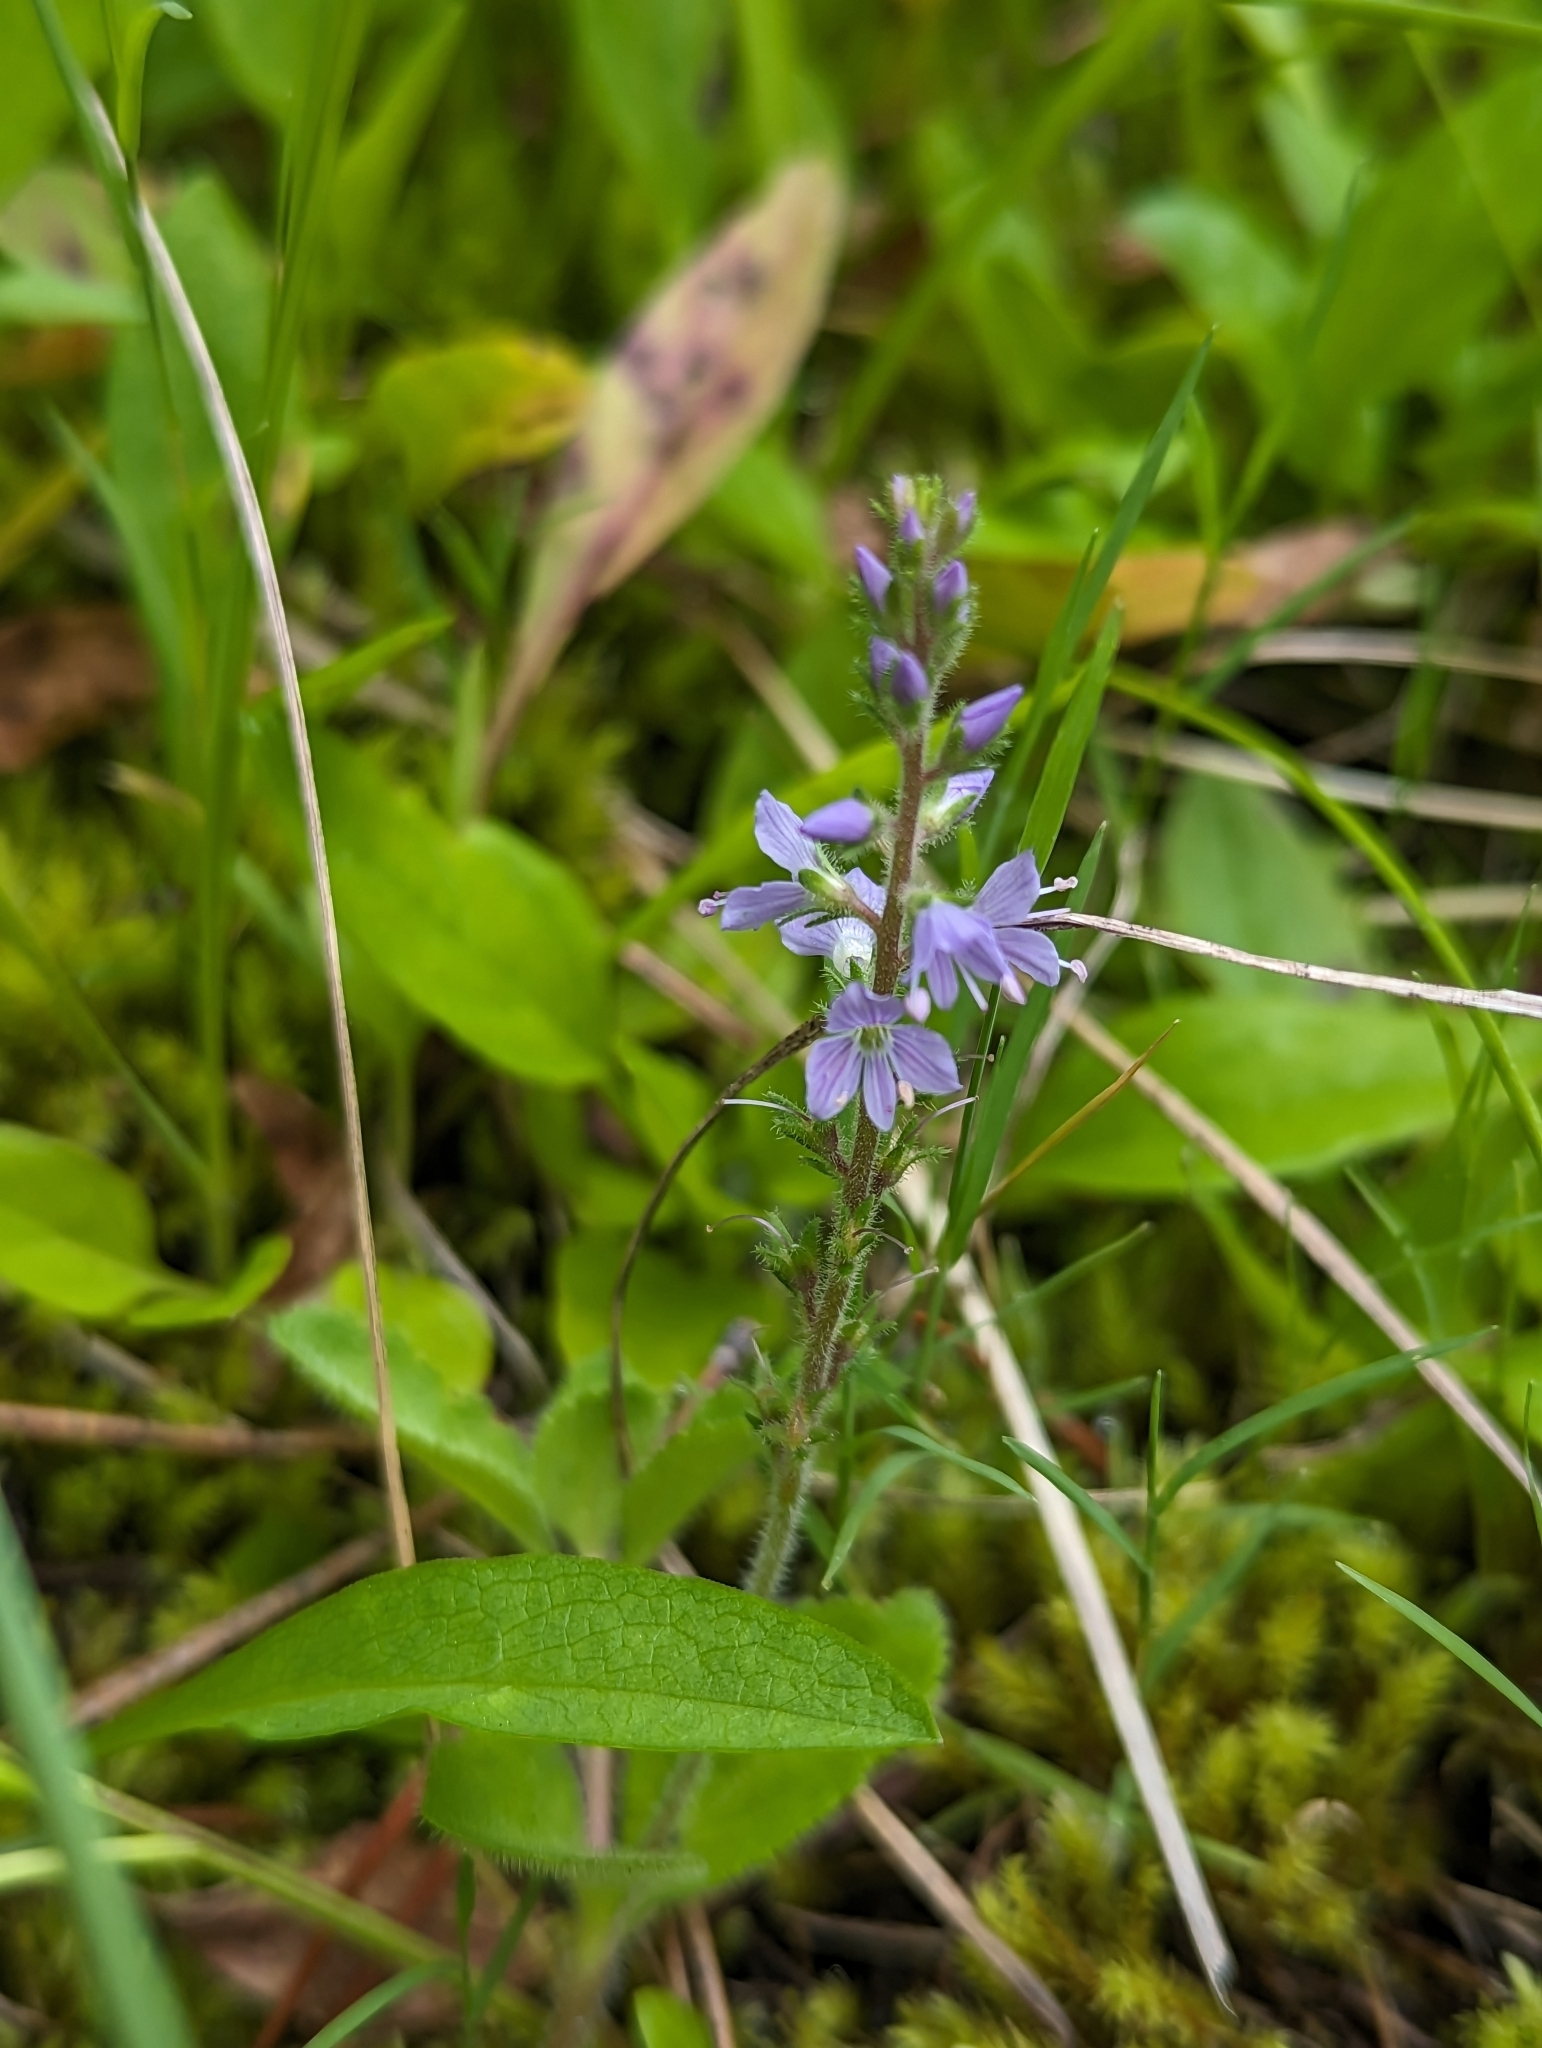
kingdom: Plantae
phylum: Tracheophyta
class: Magnoliopsida
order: Lamiales
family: Plantaginaceae
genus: Veronica
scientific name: Veronica officinalis
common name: Common speedwell
